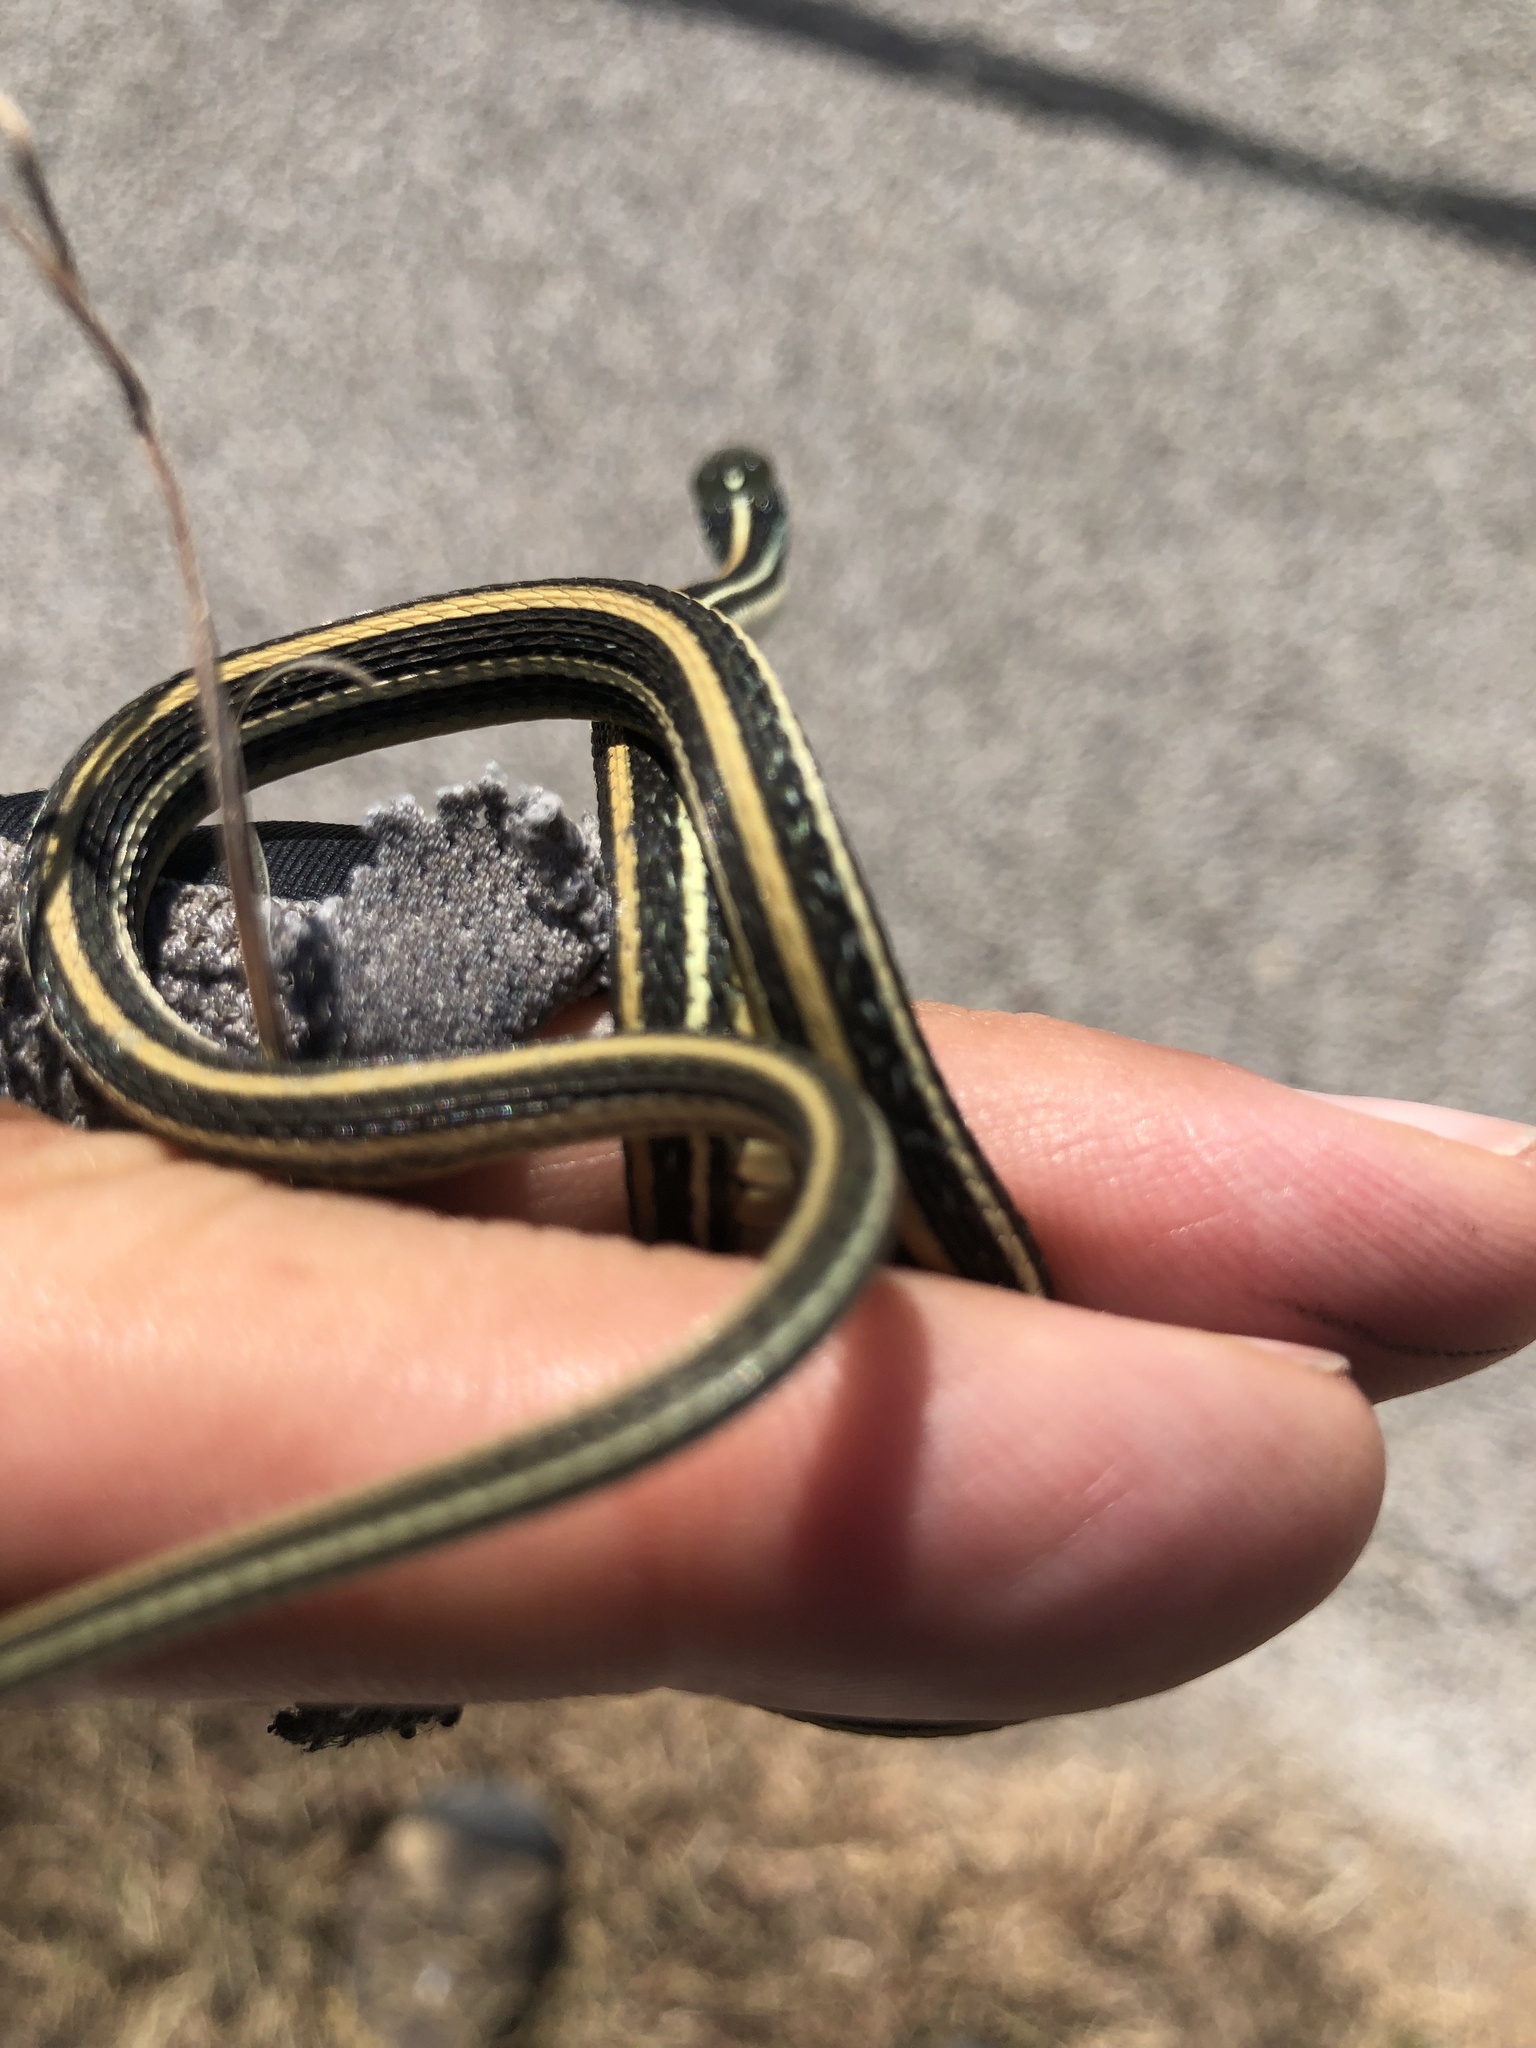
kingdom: Animalia
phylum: Chordata
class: Squamata
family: Colubridae
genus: Thamnophis
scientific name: Thamnophis proximus
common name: Western ribbon snake
